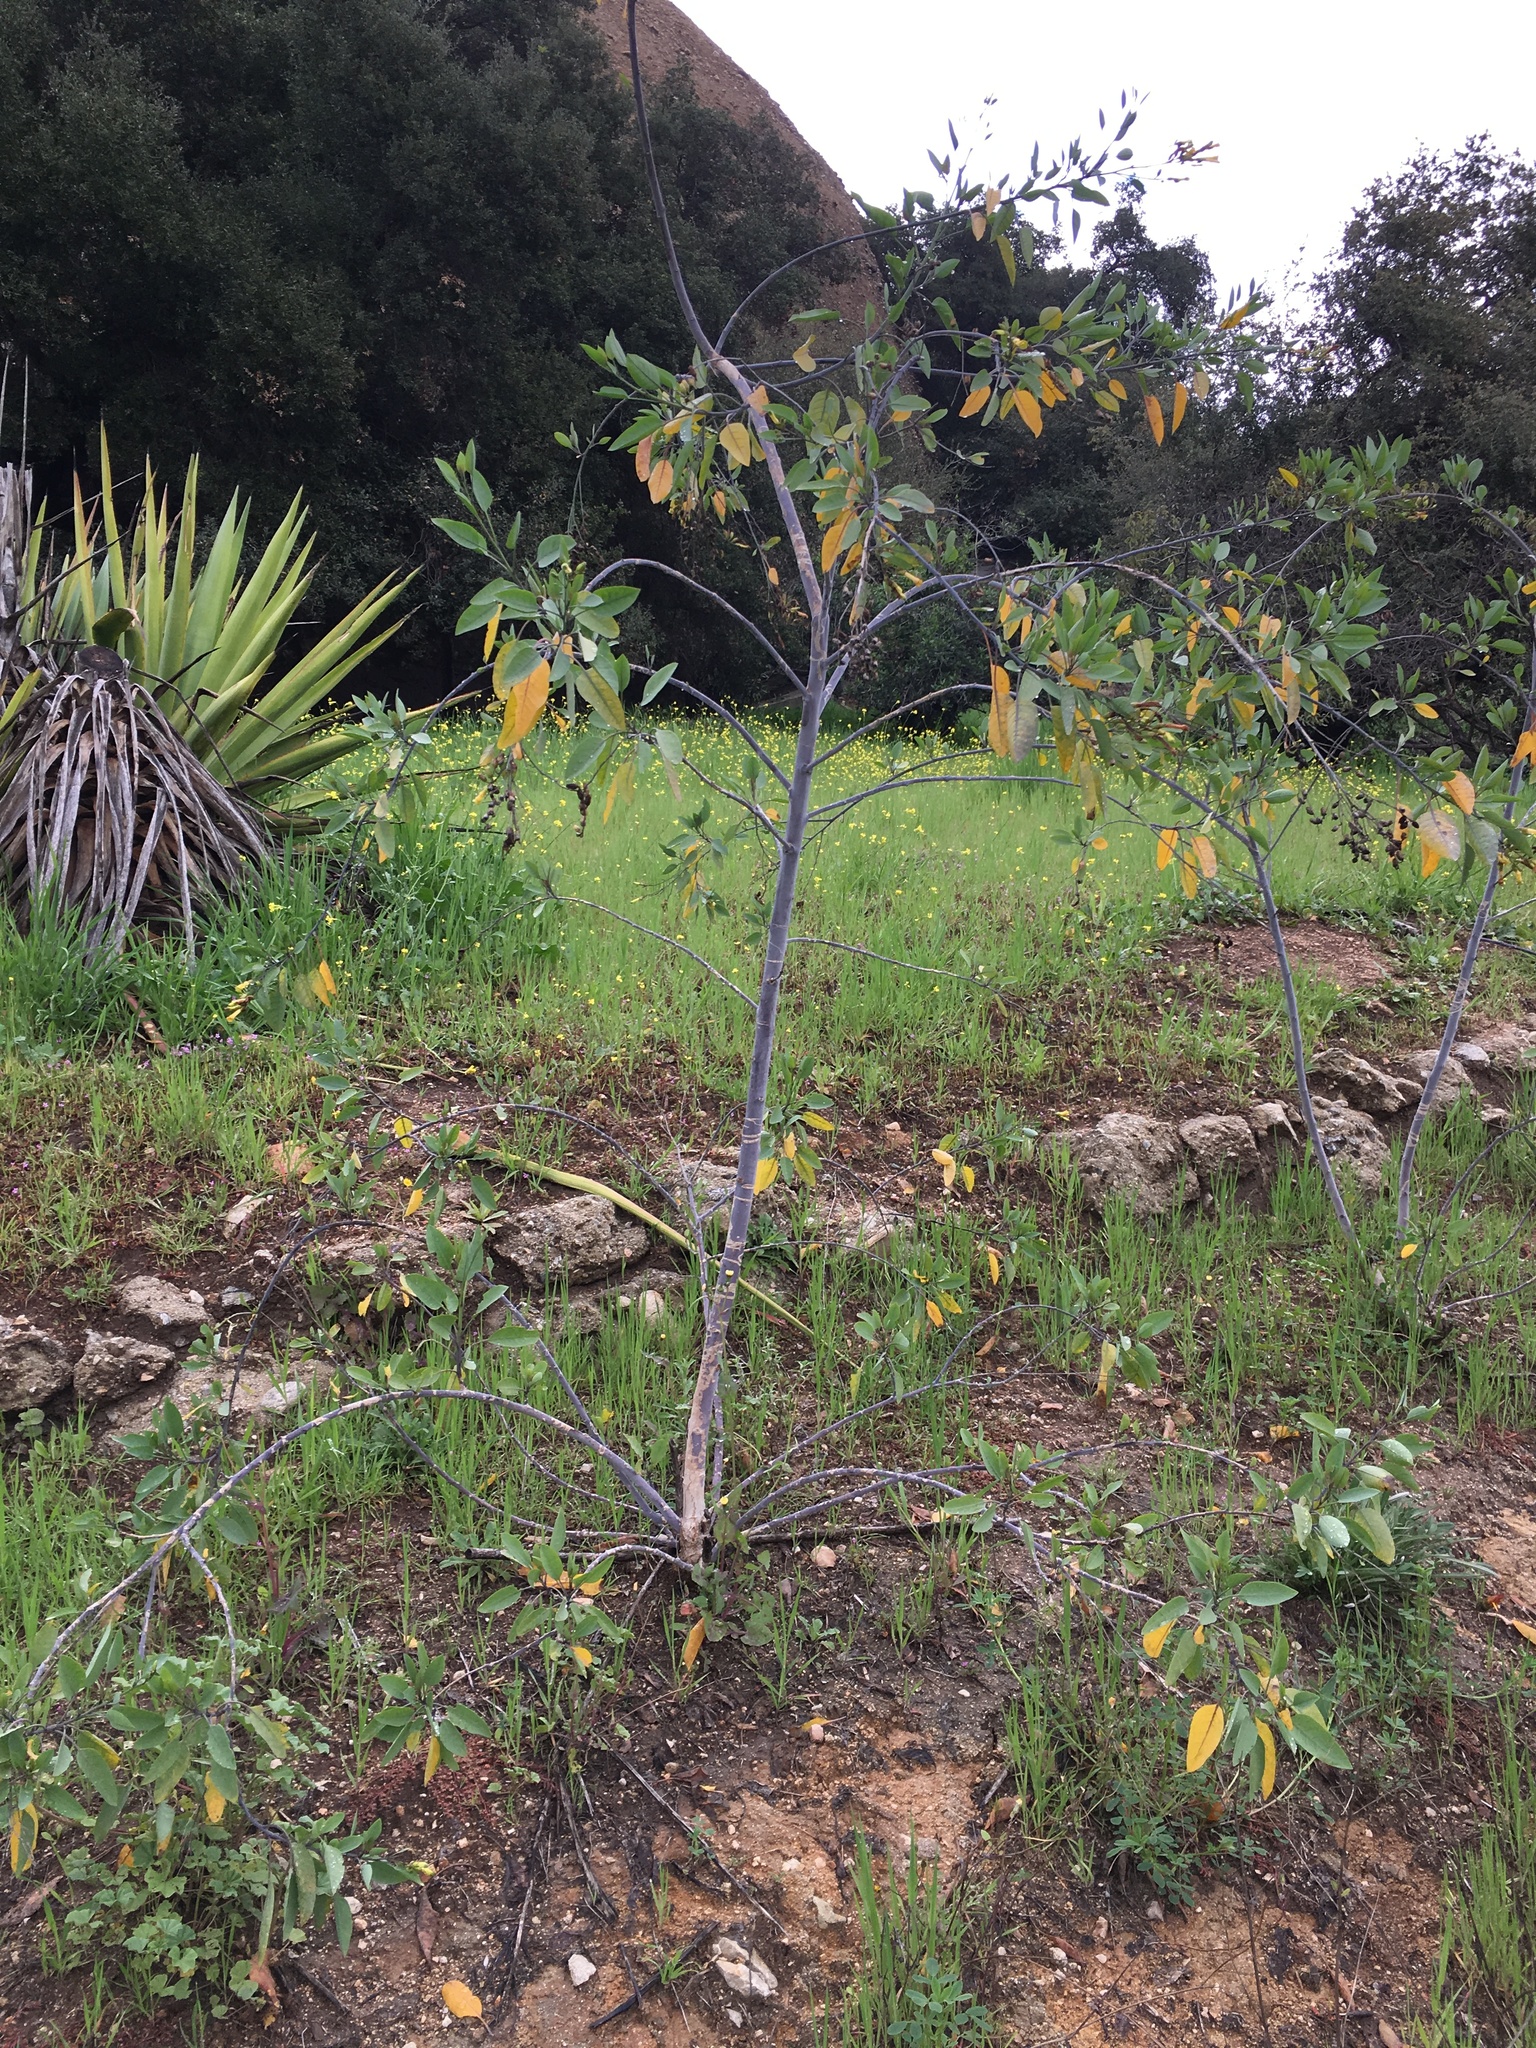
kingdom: Plantae
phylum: Tracheophyta
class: Magnoliopsida
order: Solanales
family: Solanaceae
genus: Nicotiana
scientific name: Nicotiana glauca
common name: Tree tobacco
